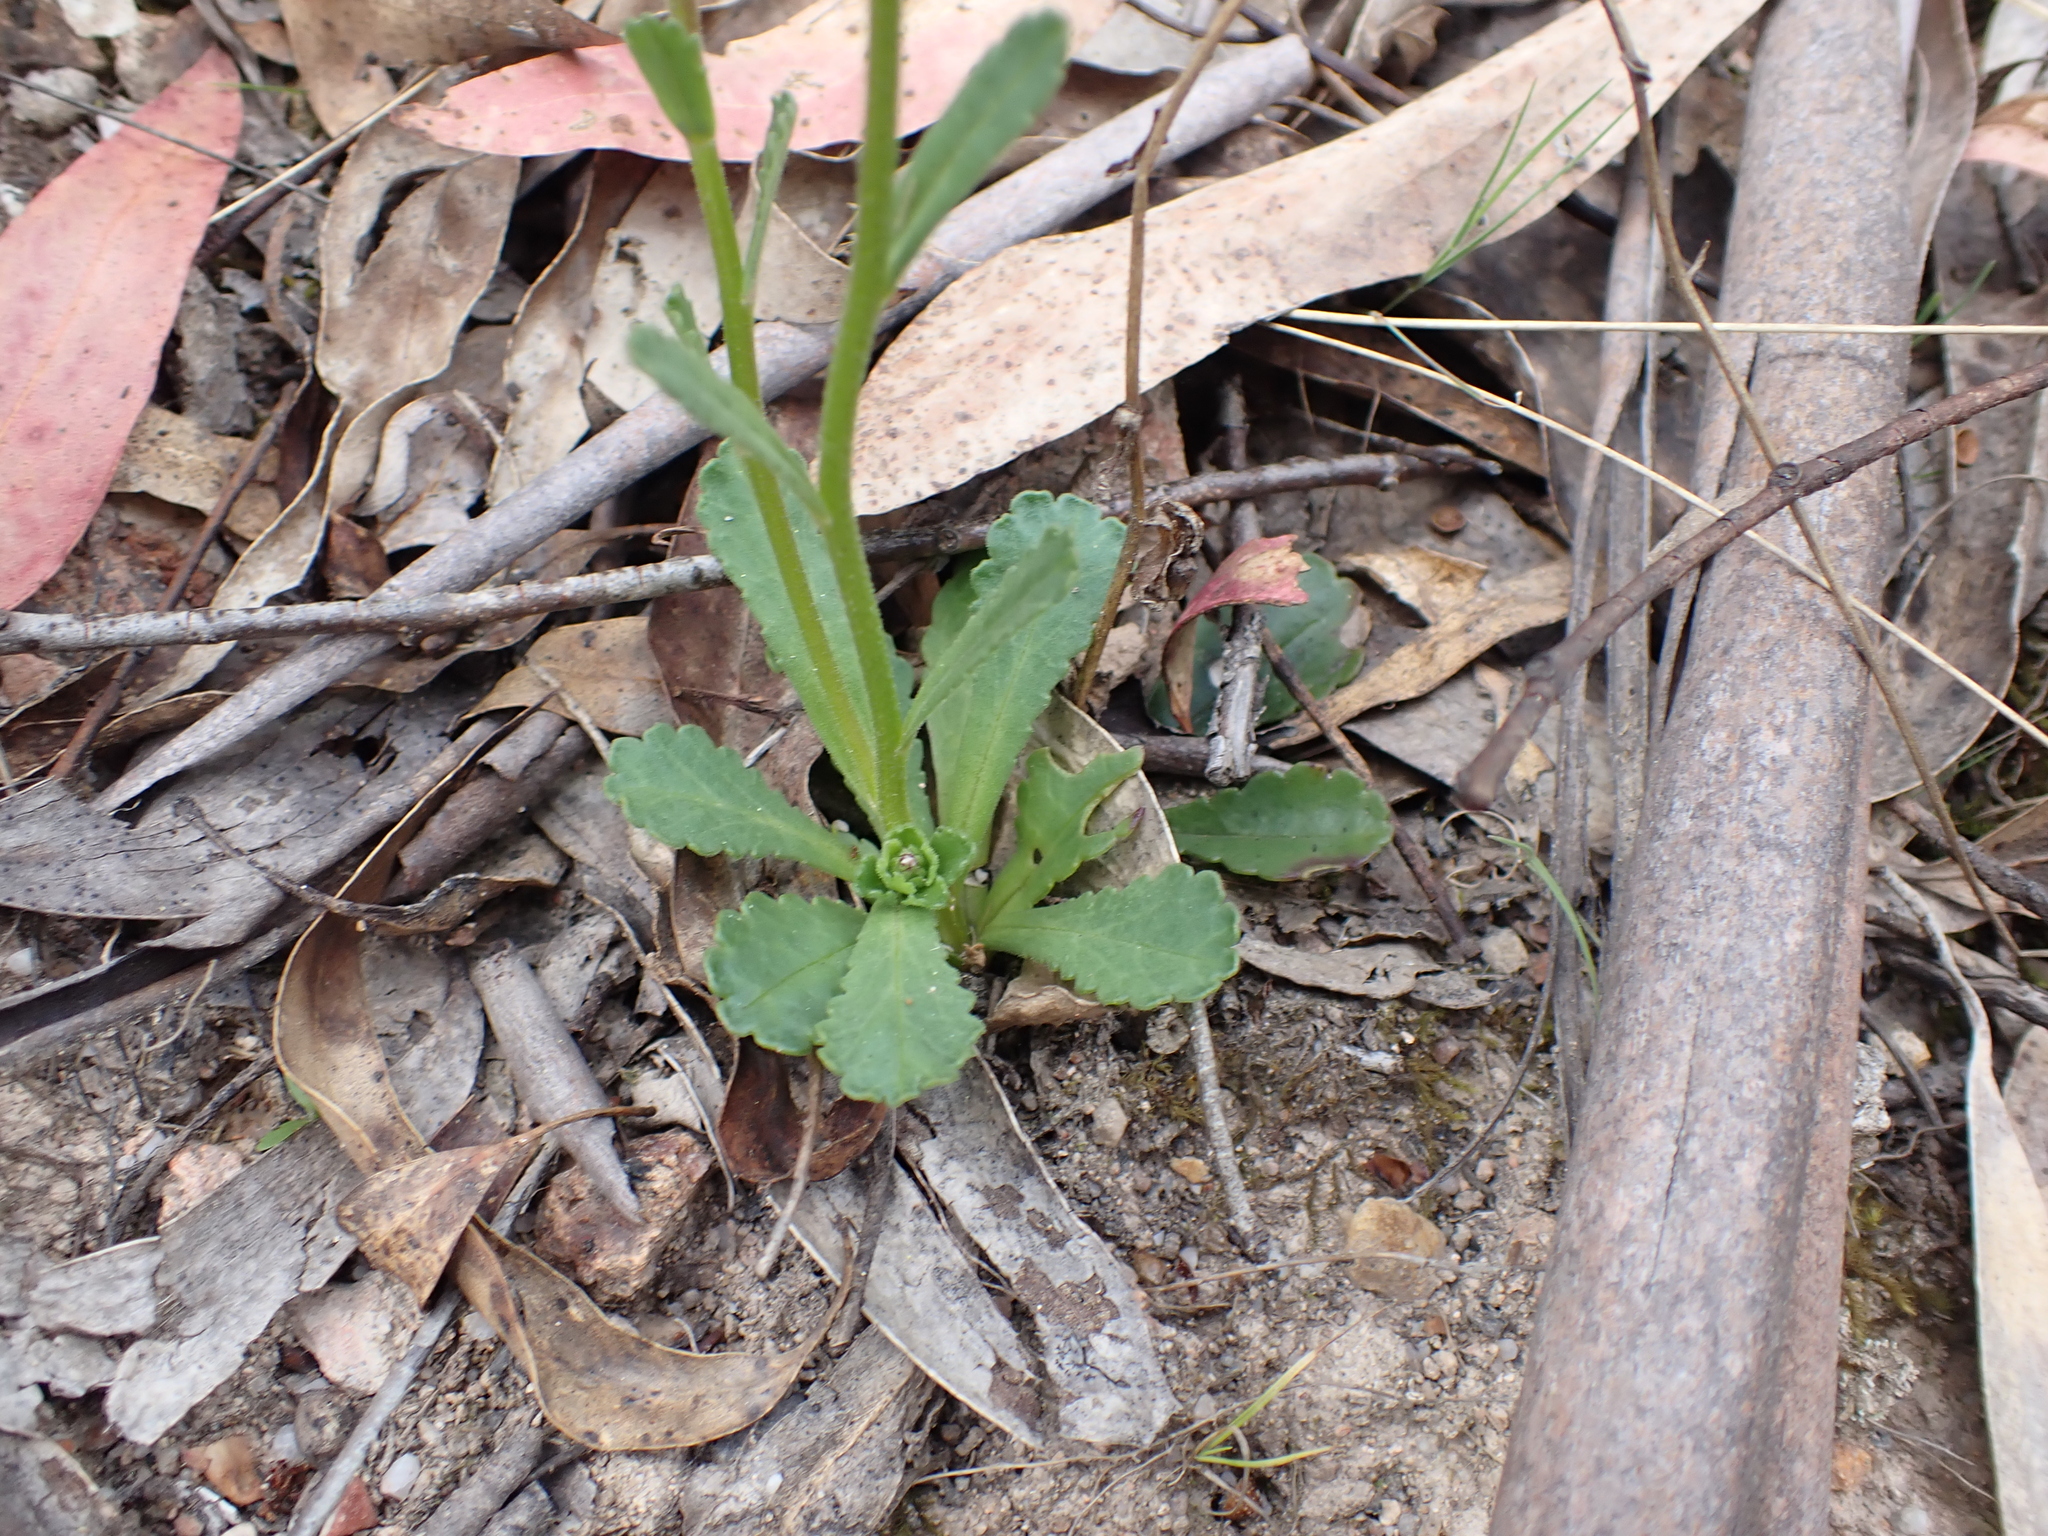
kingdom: Plantae
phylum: Tracheophyta
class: Magnoliopsida
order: Asterales
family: Asteraceae
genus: Brachyscome
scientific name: Brachyscome spathulata
